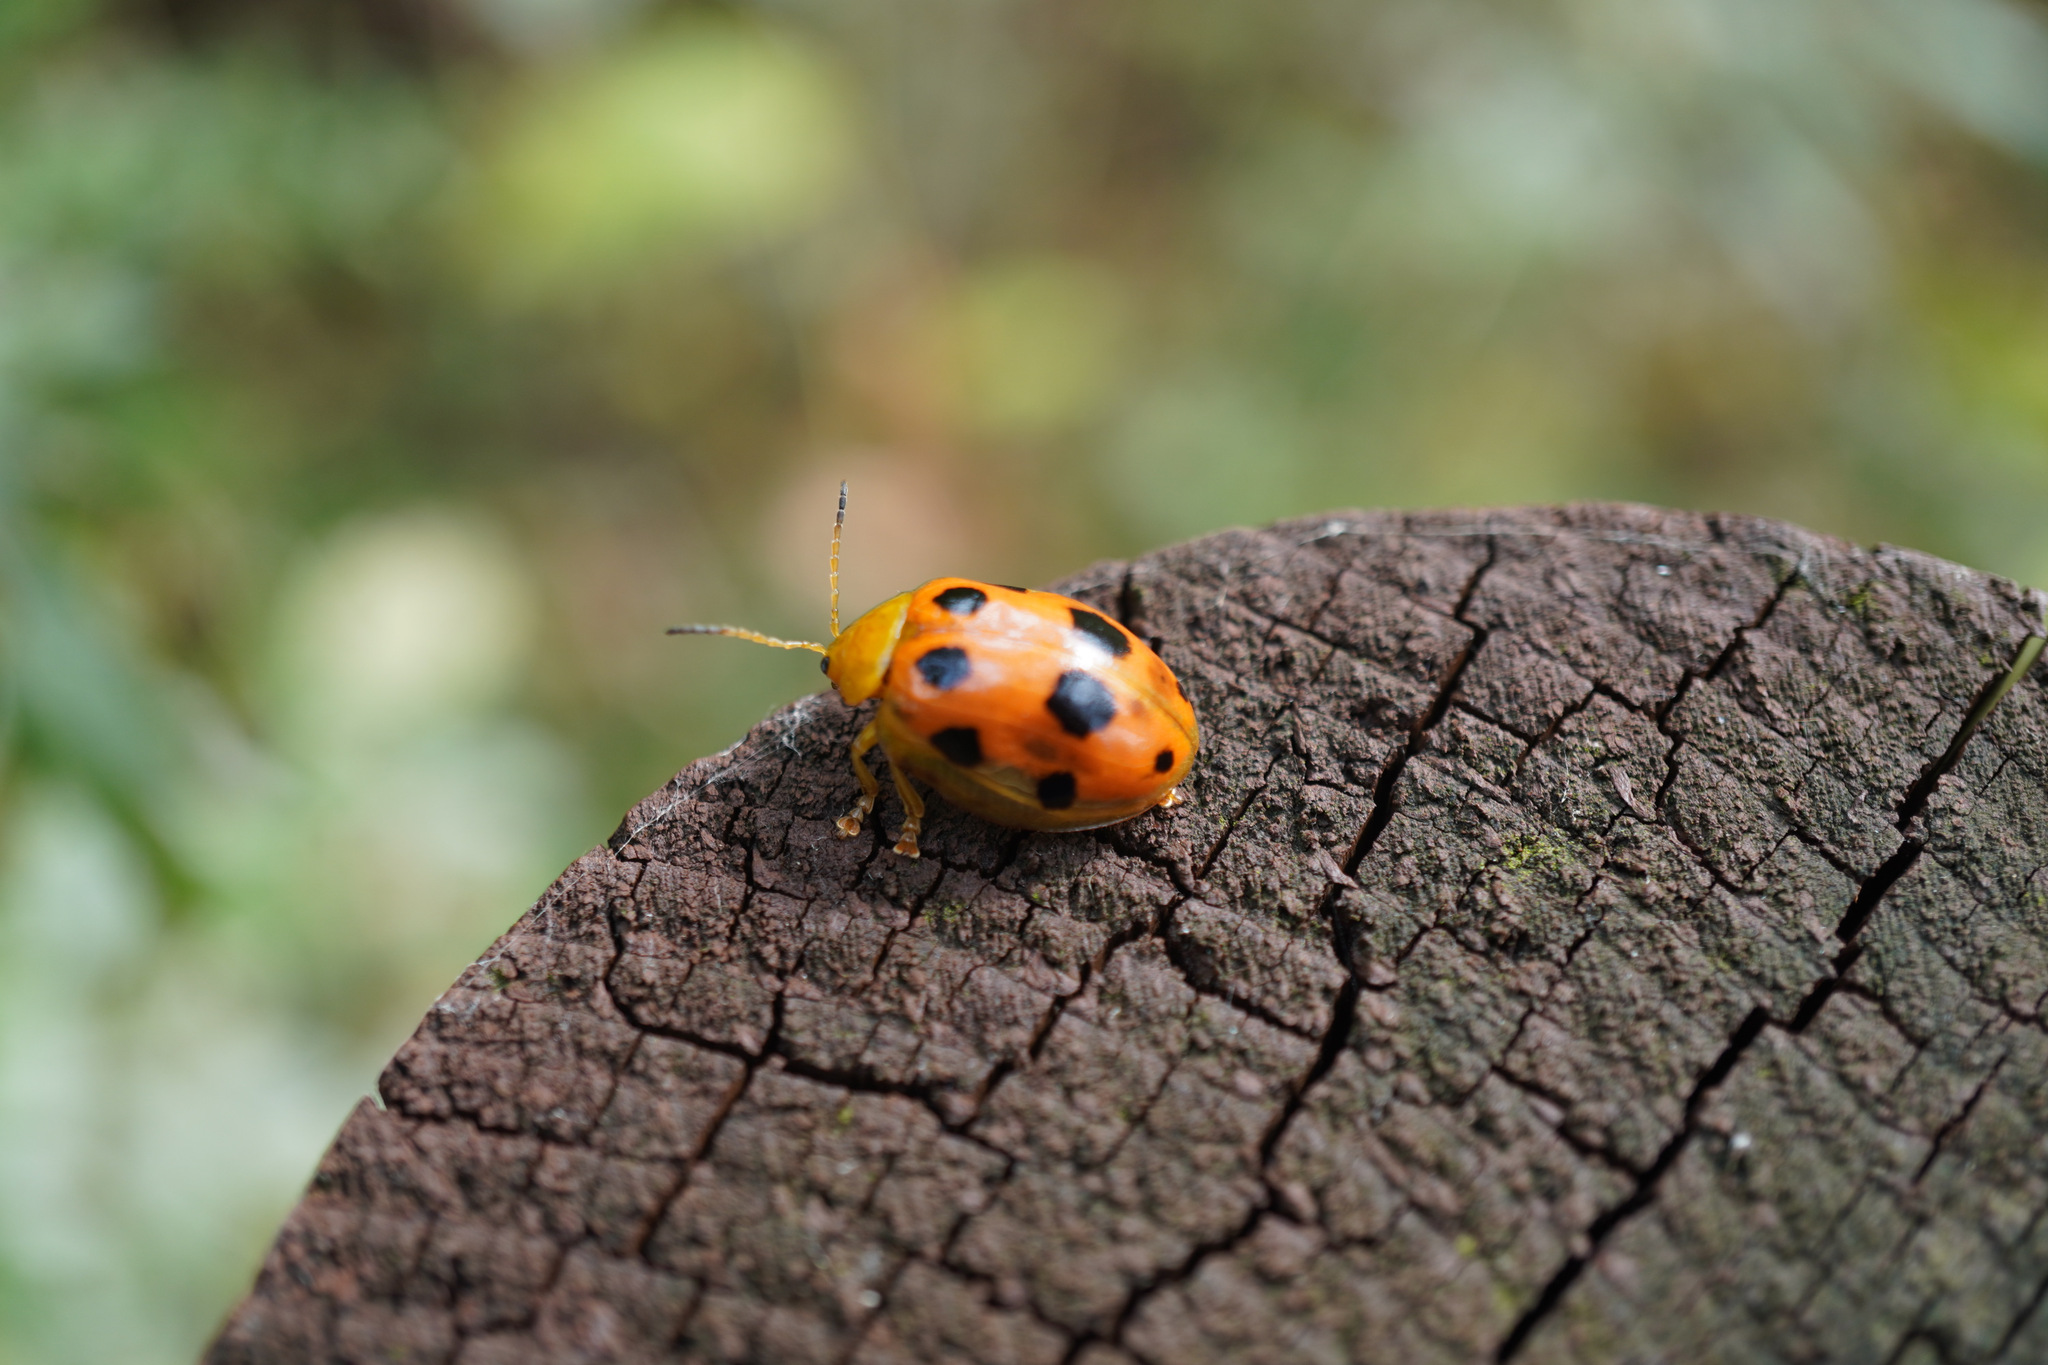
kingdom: Animalia
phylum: Arthropoda
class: Insecta
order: Coleoptera
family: Chrysomelidae
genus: Oides
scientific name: Oides decempunctata
